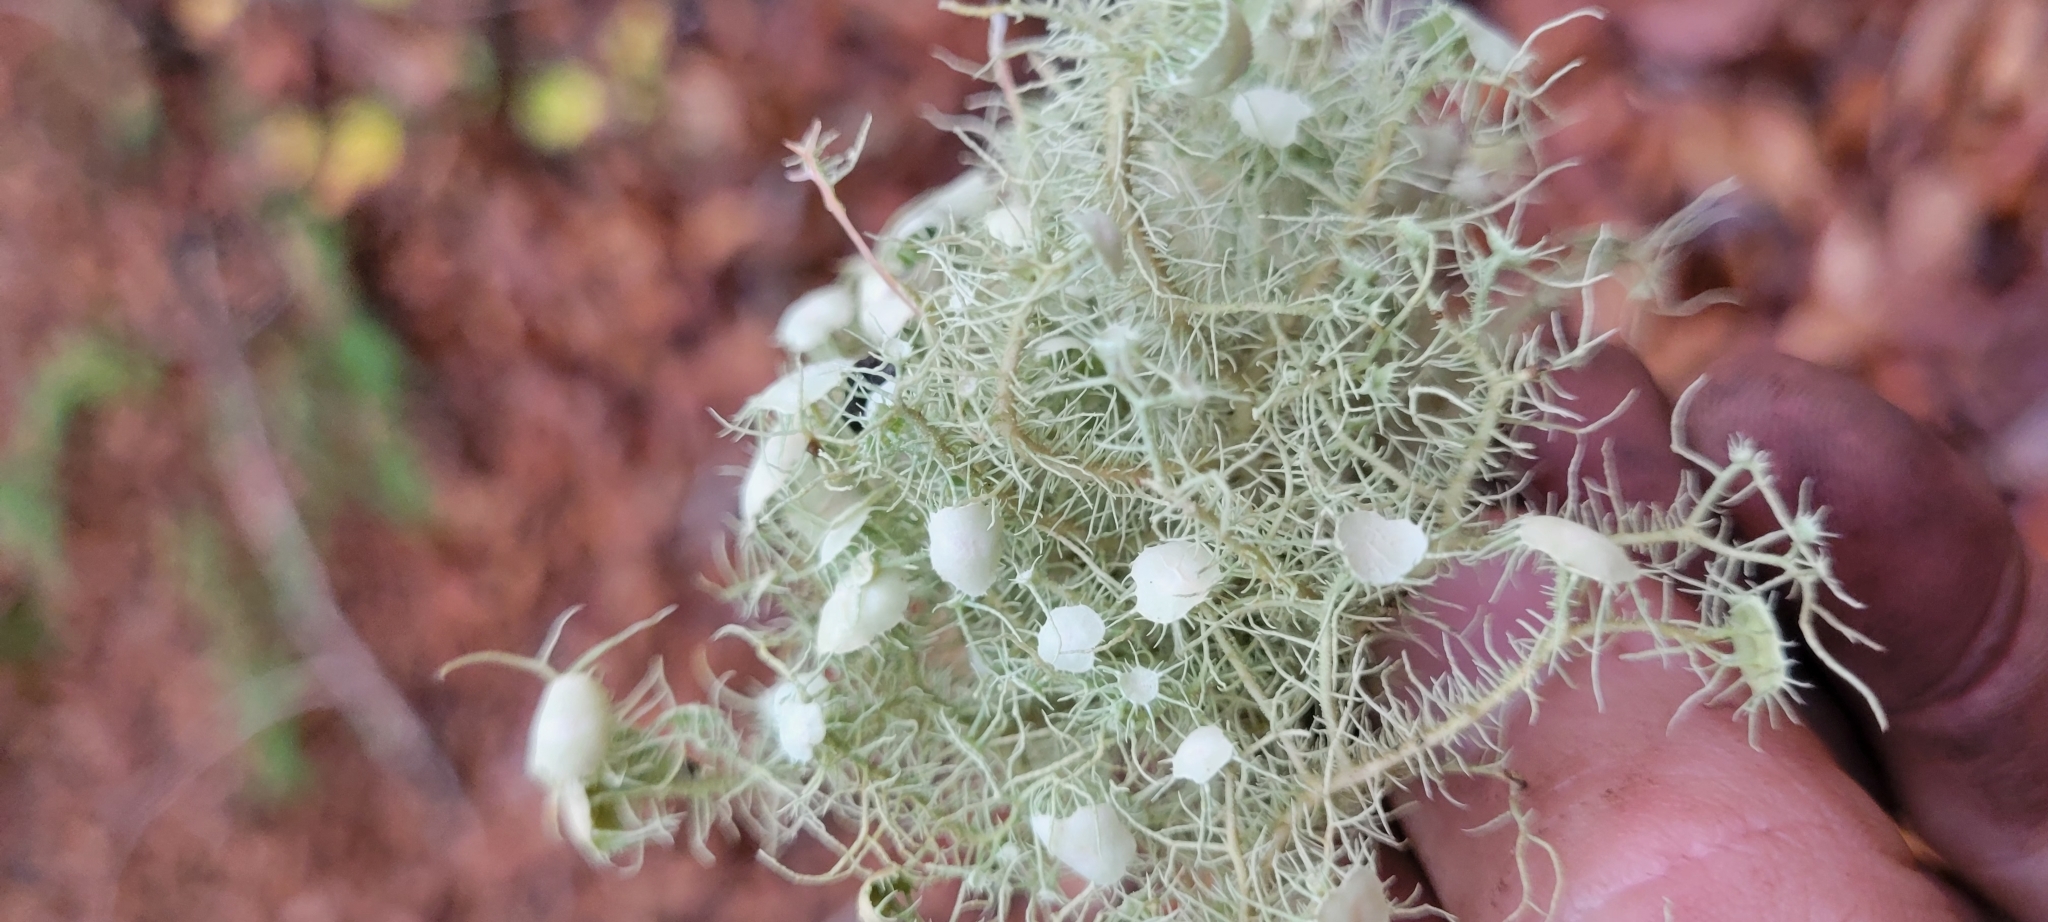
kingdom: Fungi
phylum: Ascomycota
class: Lecanoromycetes
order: Lecanorales
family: Parmeliaceae
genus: Usnea
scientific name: Usnea strigosa
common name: Bushy beard lichen
